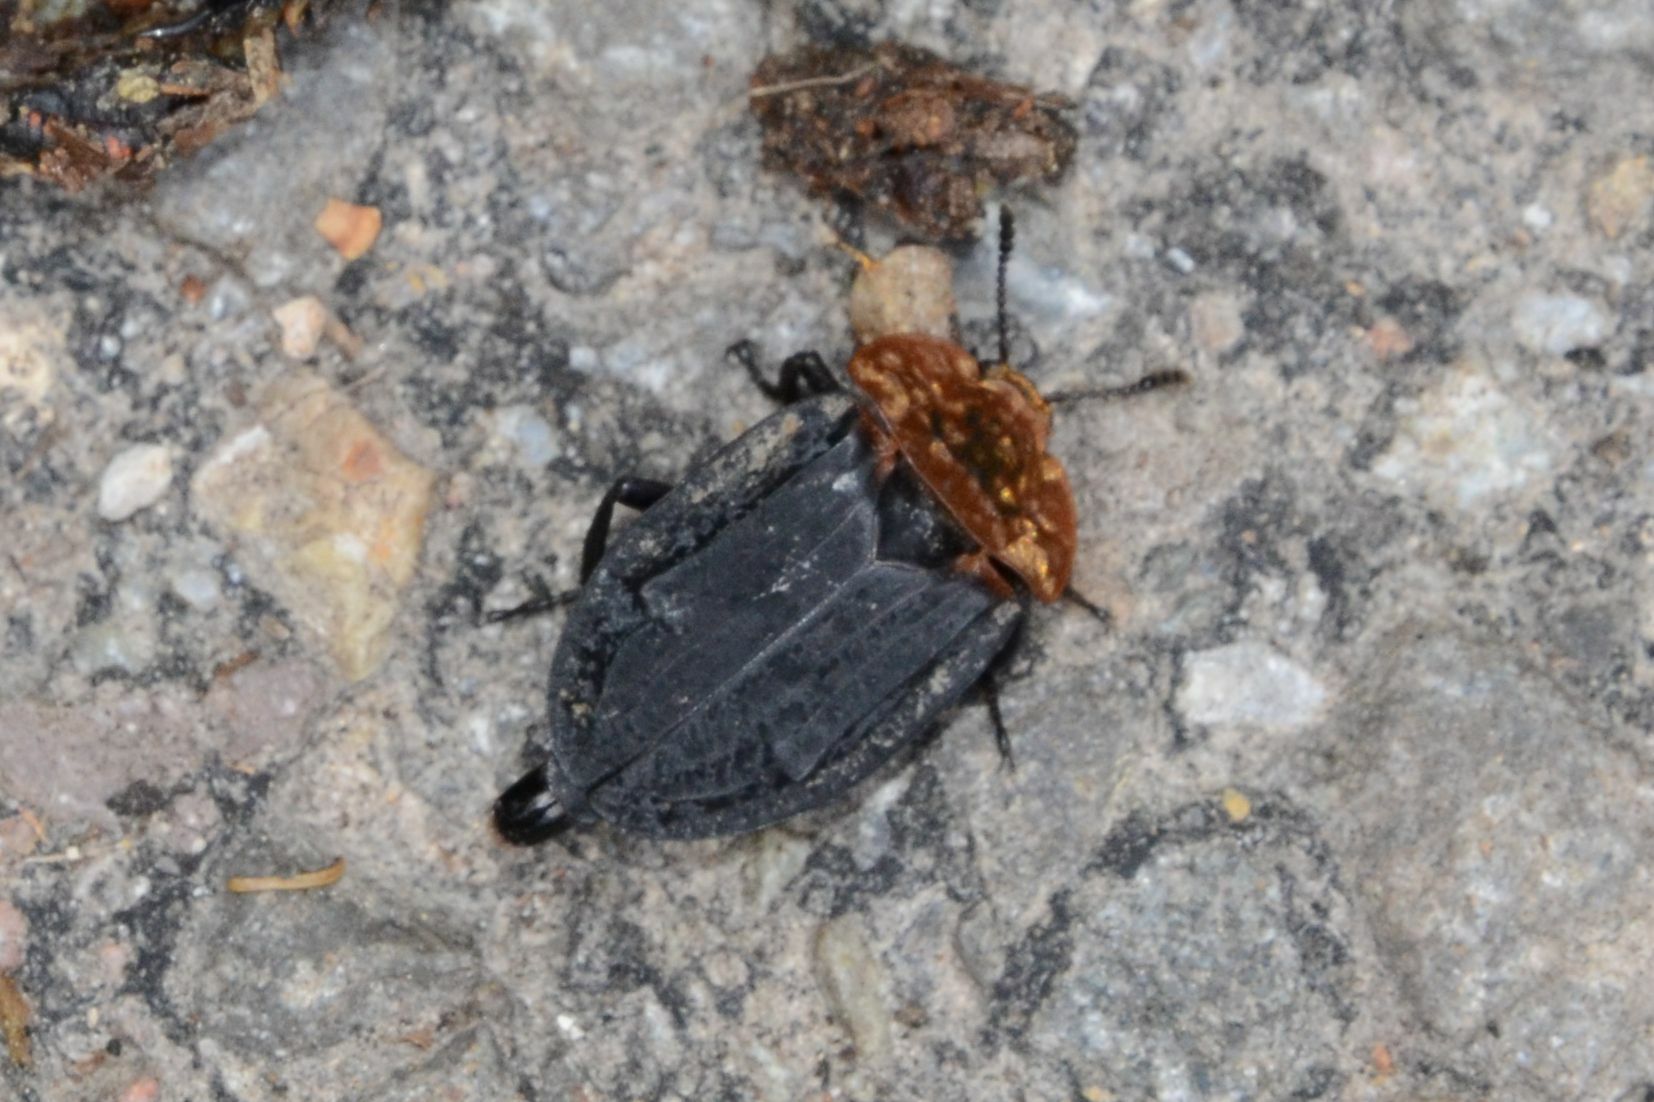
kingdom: Animalia
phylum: Arthropoda
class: Insecta
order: Coleoptera
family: Staphylinidae
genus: Oiceoptoma
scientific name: Oiceoptoma thoracicum
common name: Red-breasted carrion beetle
